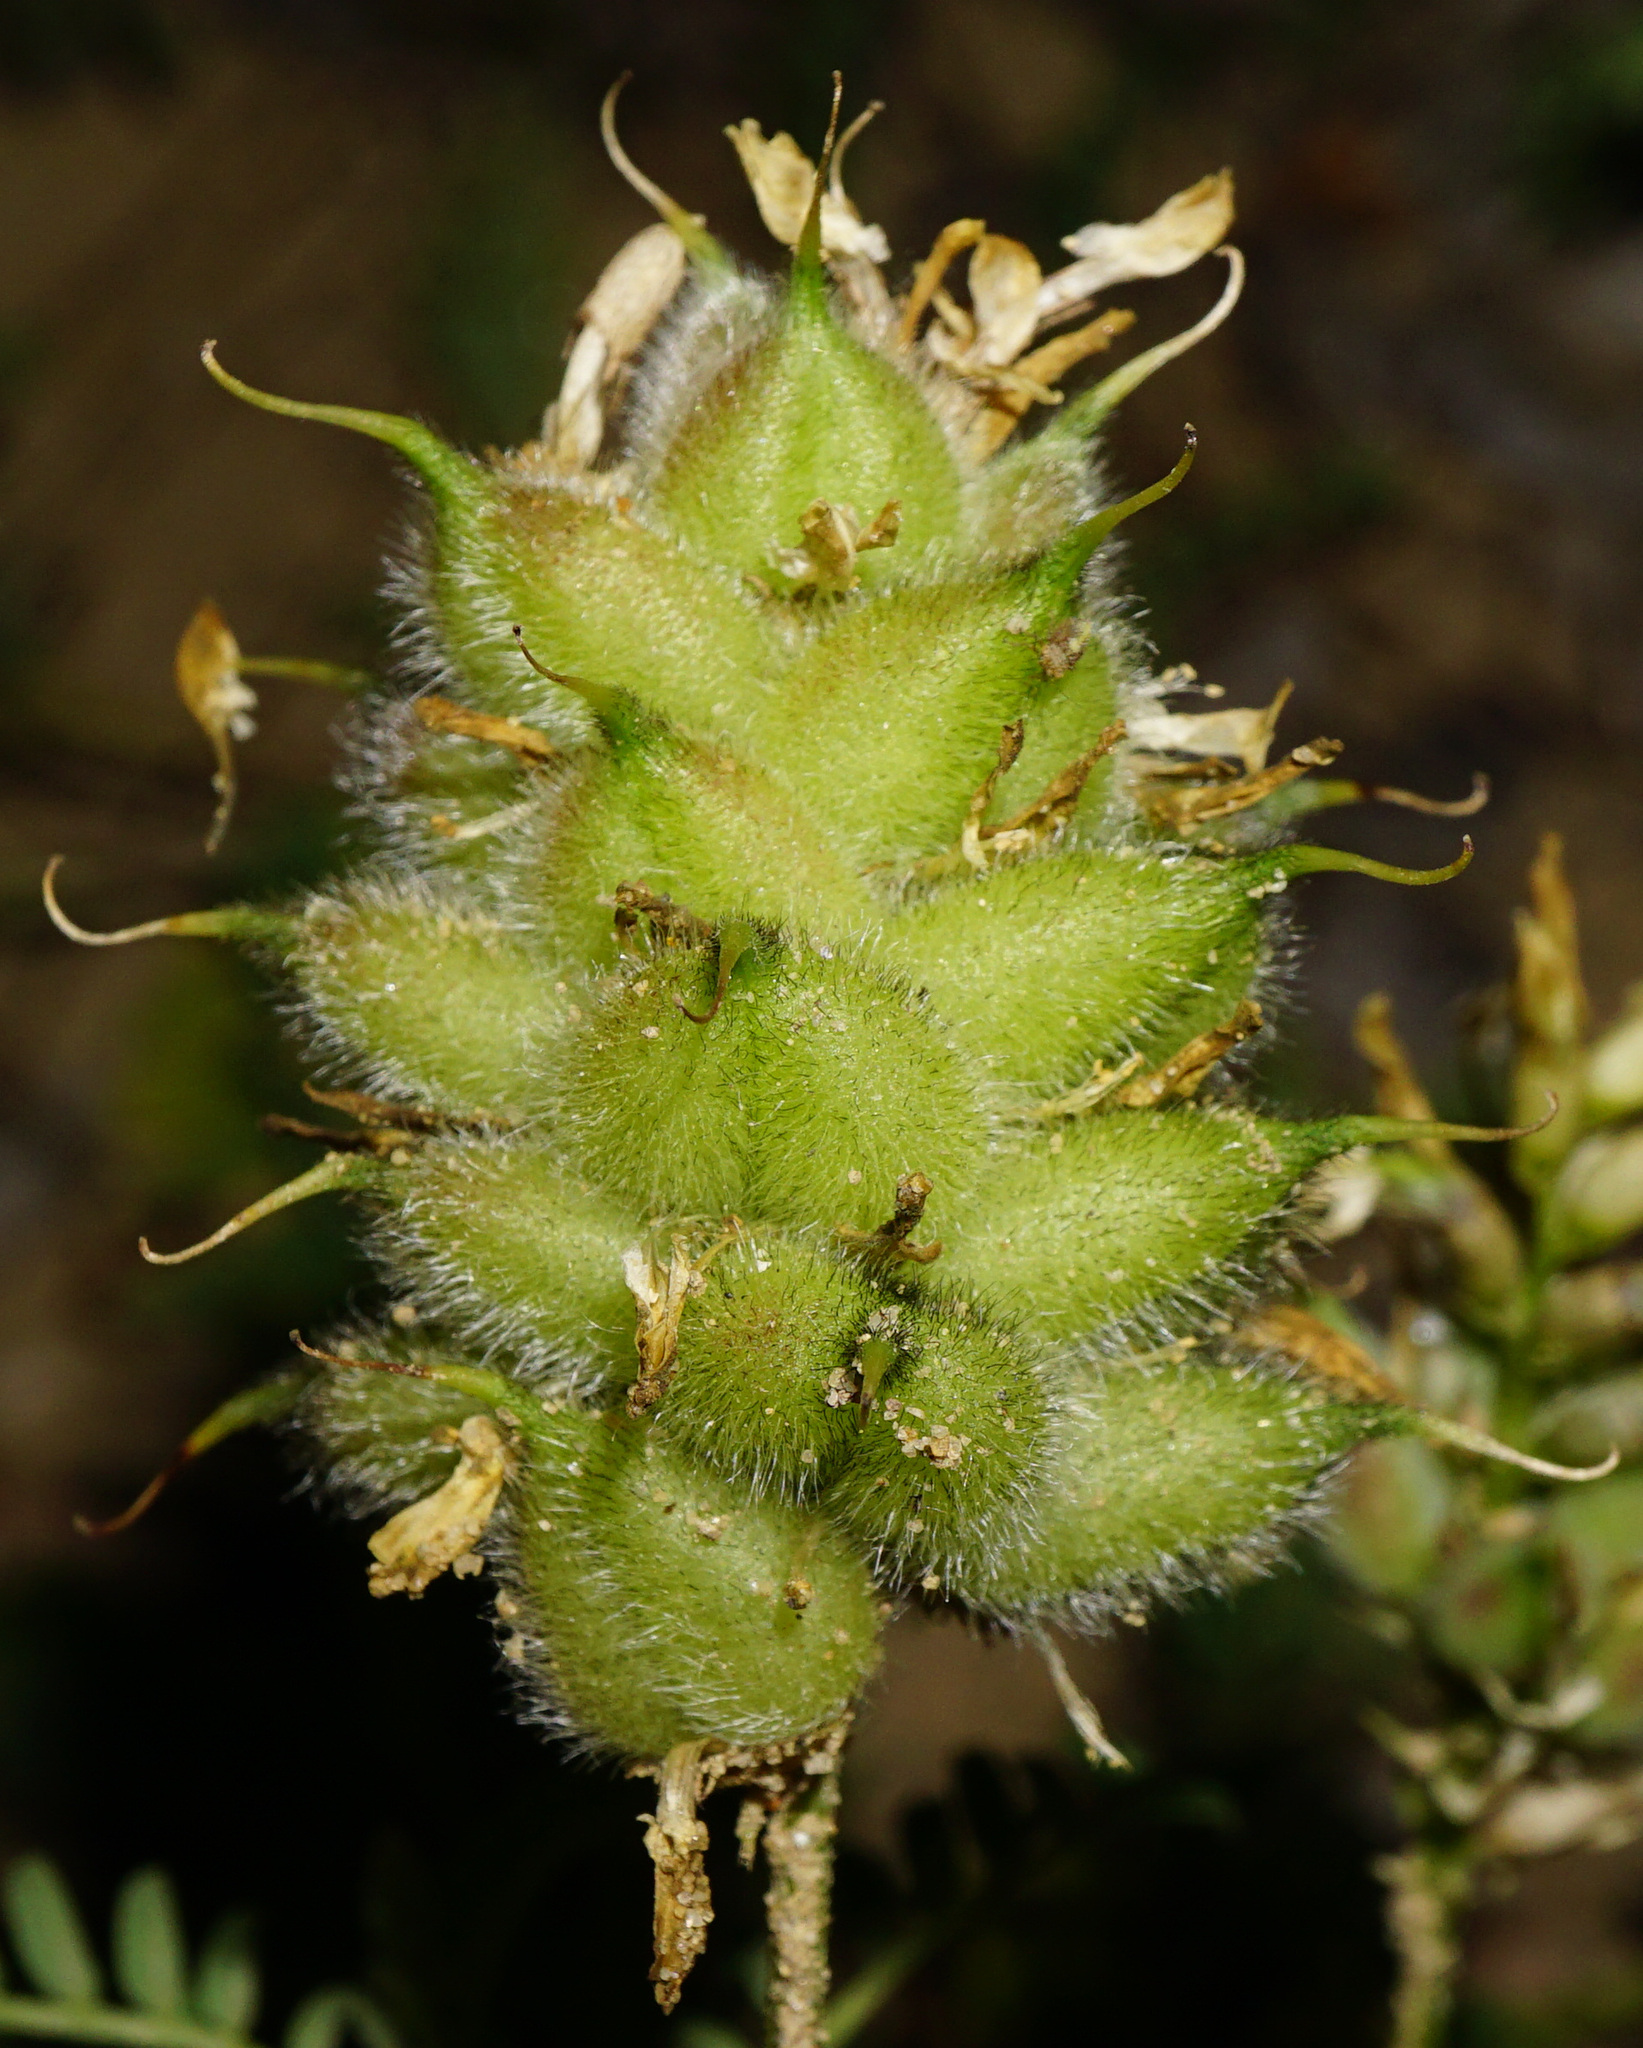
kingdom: Plantae
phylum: Tracheophyta
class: Magnoliopsida
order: Fabales
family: Fabaceae
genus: Astragalus
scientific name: Astragalus cicer
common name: Chick-pea milk-vetch
